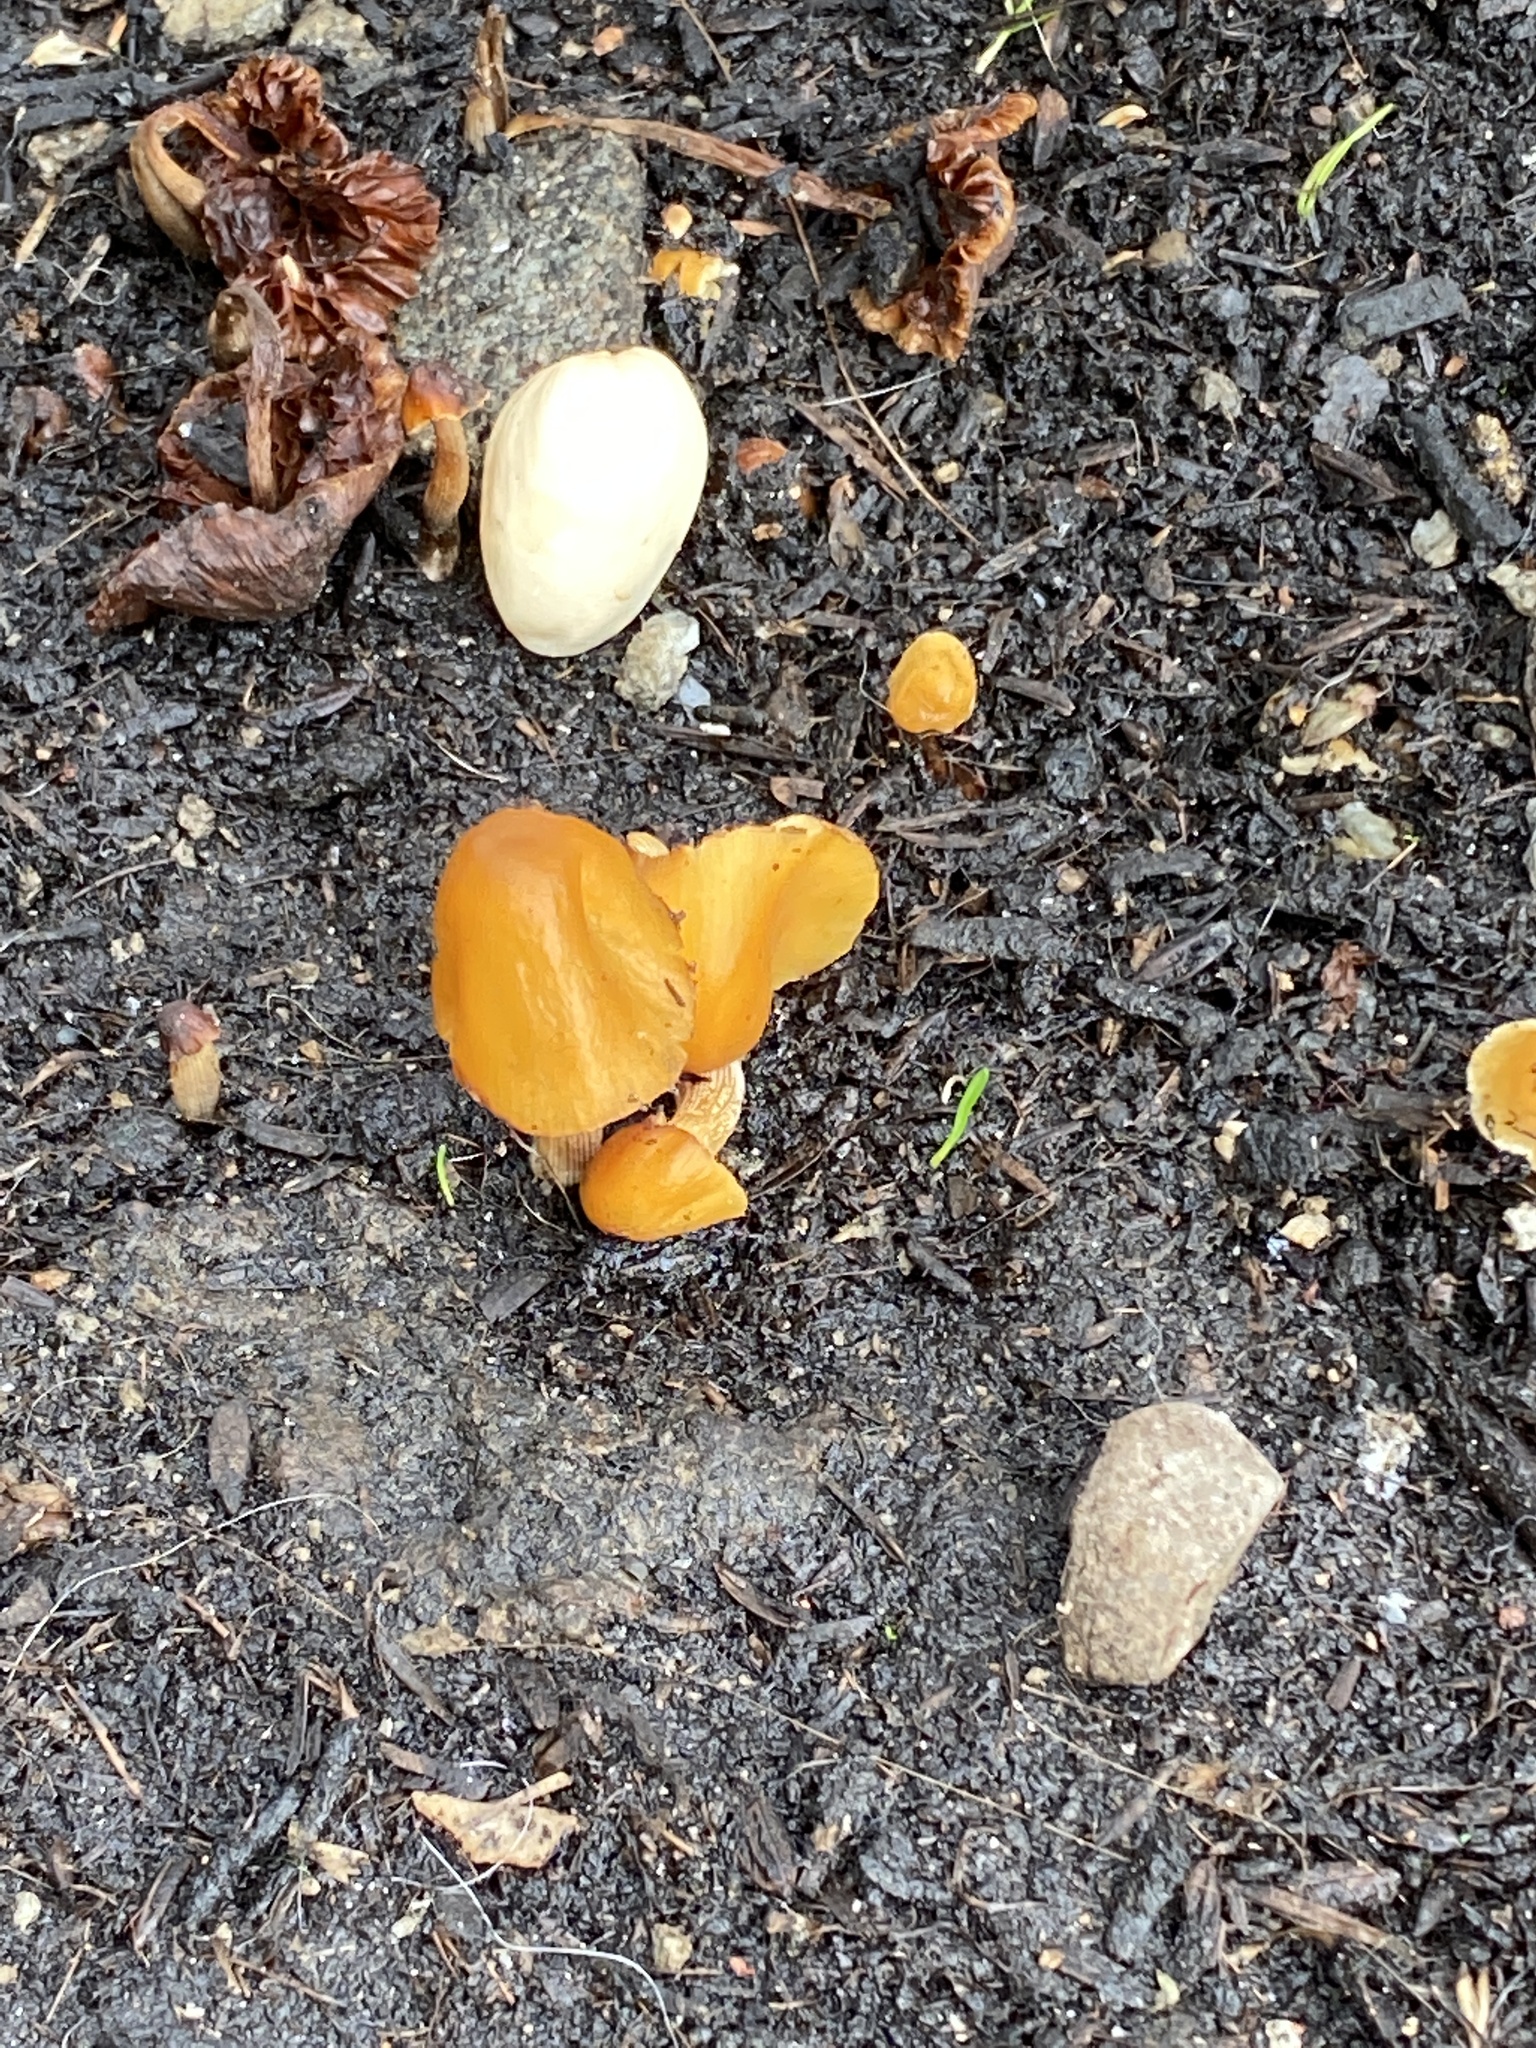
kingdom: Fungi
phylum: Basidiomycota
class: Agaricomycetes
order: Agaricales
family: Bolbitiaceae
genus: Conocybe
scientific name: Conocybe aurea
